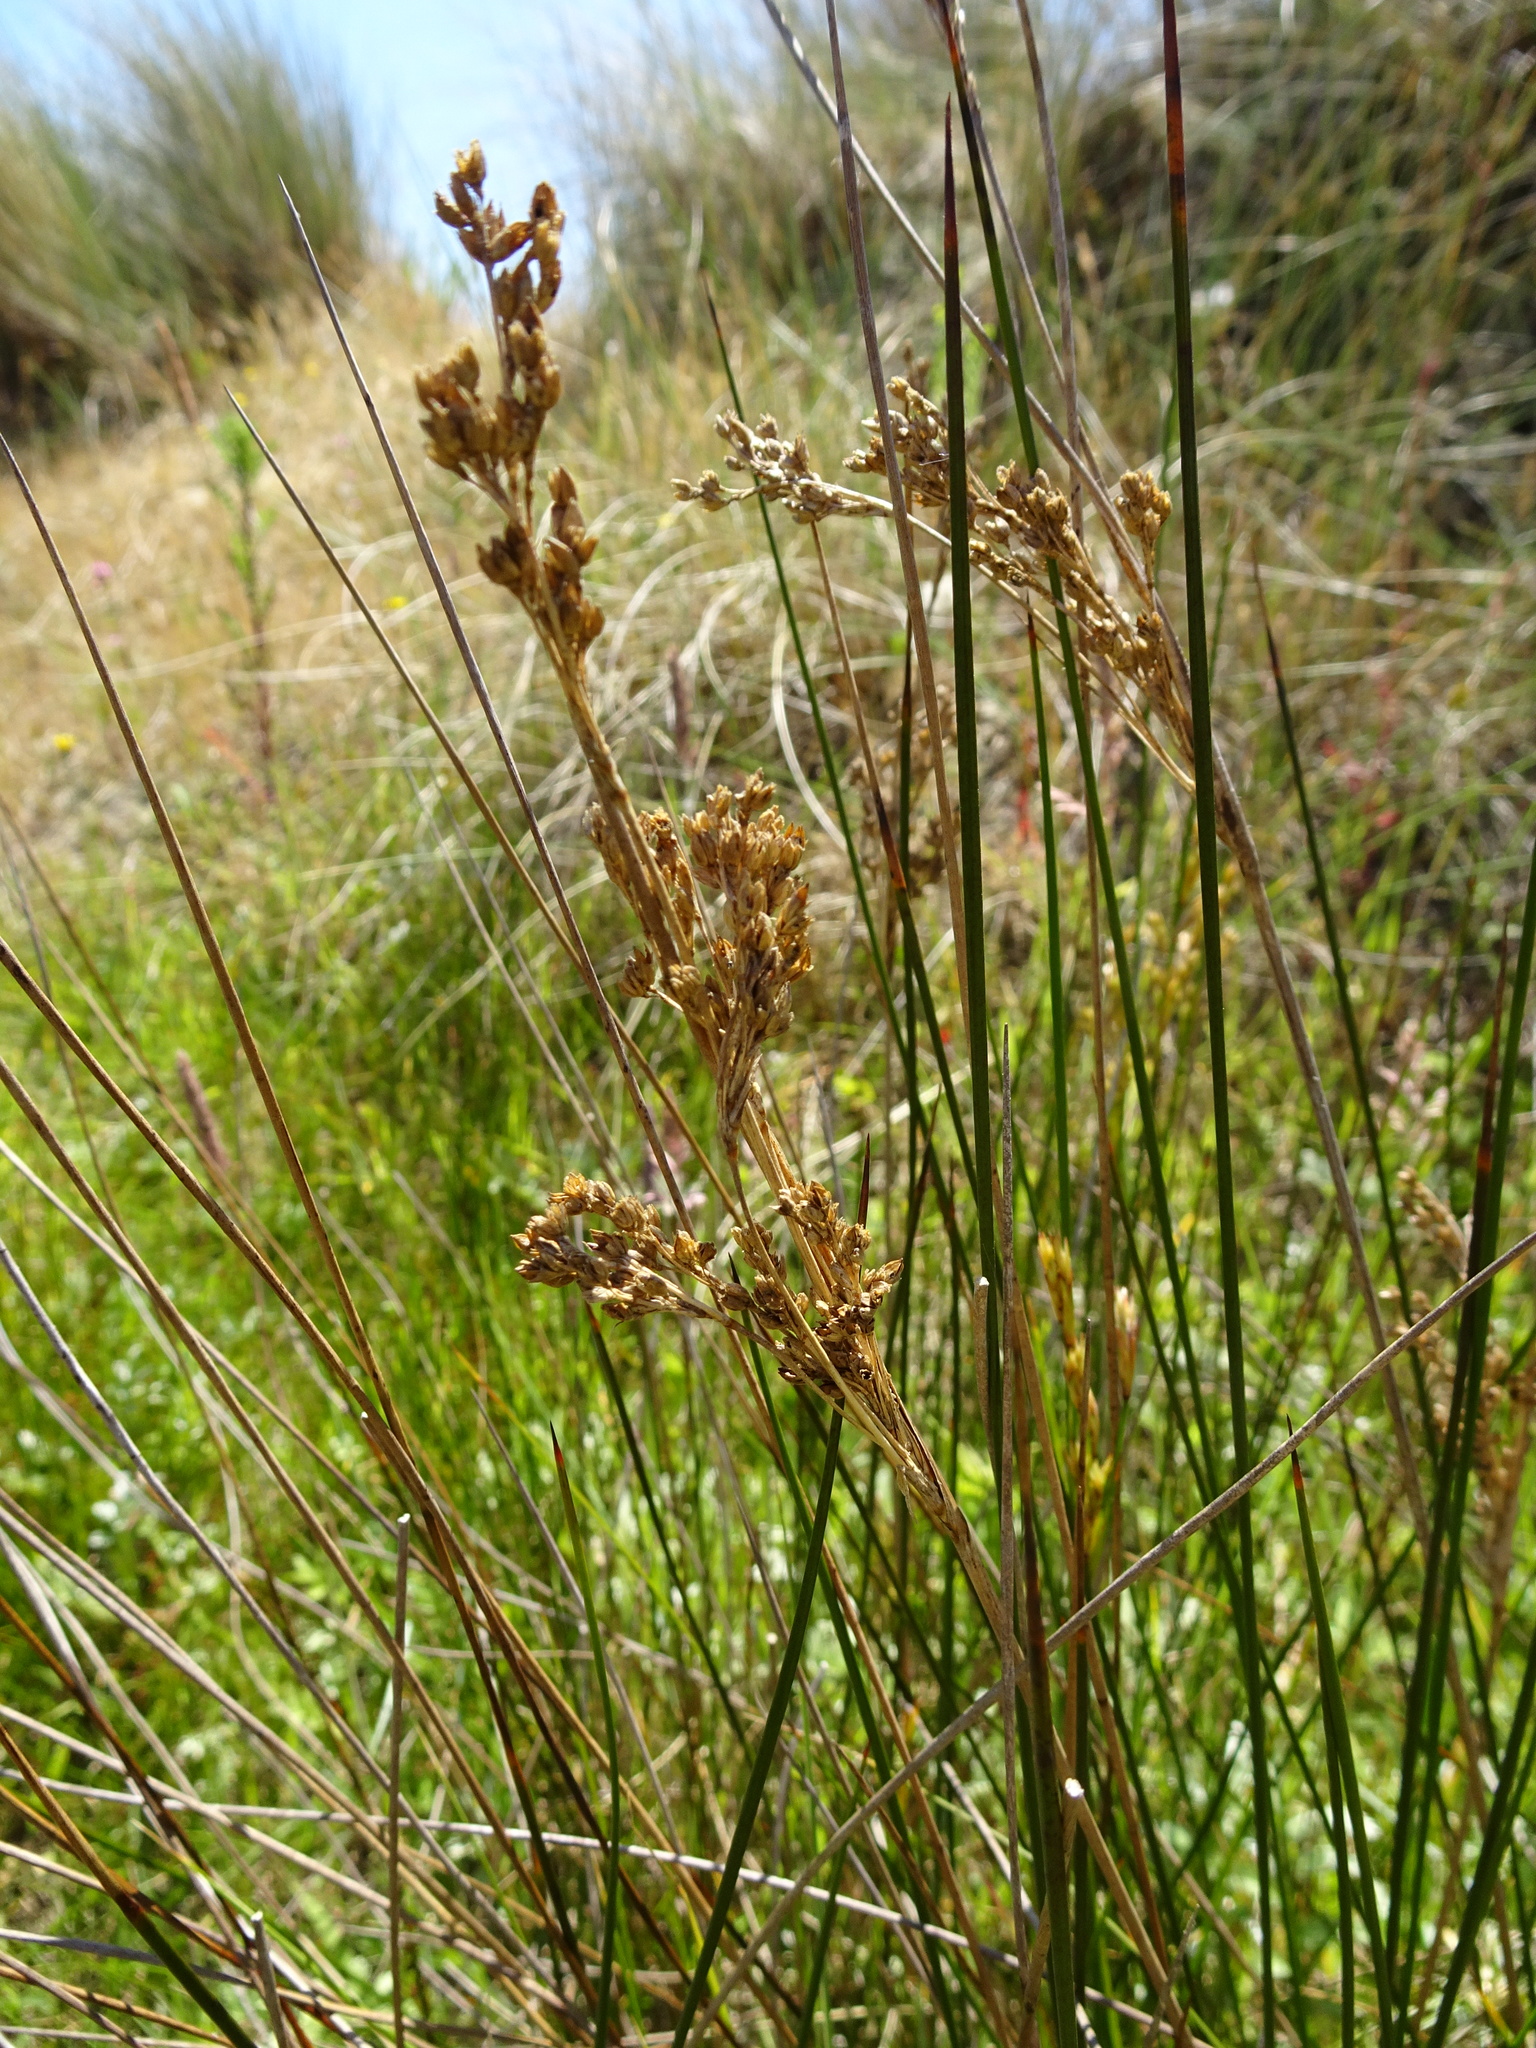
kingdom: Plantae
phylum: Tracheophyta
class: Liliopsida
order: Poales
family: Juncaceae
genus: Juncus
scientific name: Juncus maritimus
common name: Sea rush
